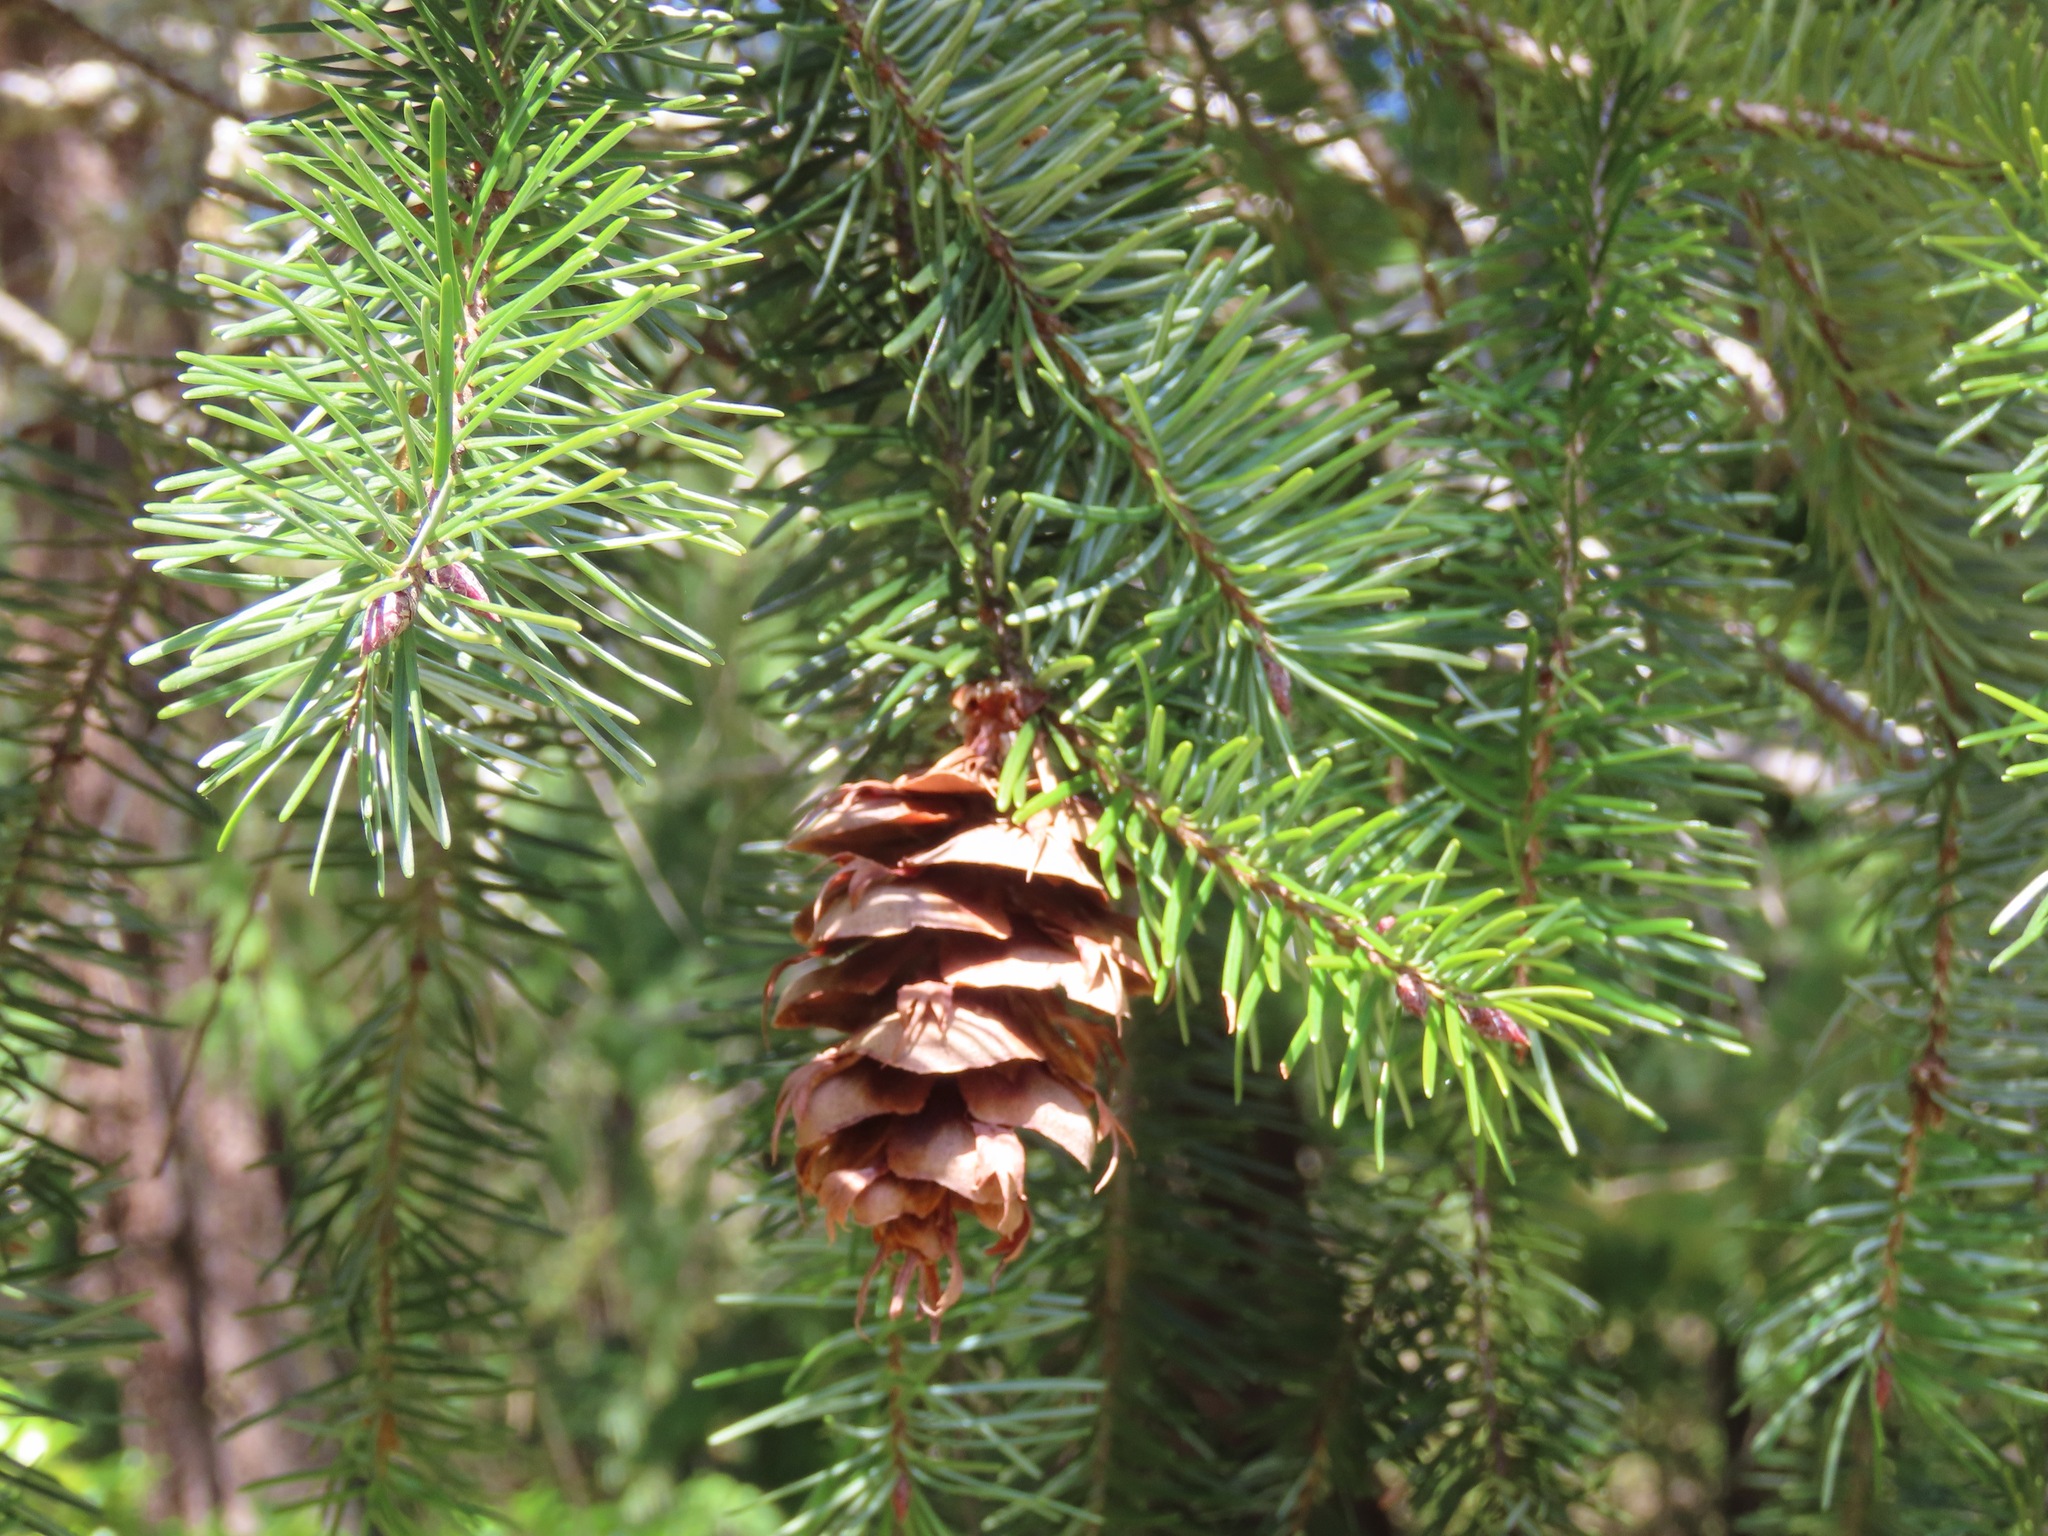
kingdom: Plantae
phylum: Tracheophyta
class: Pinopsida
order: Pinales
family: Pinaceae
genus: Pseudotsuga
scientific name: Pseudotsuga menziesii
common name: Douglas fir
